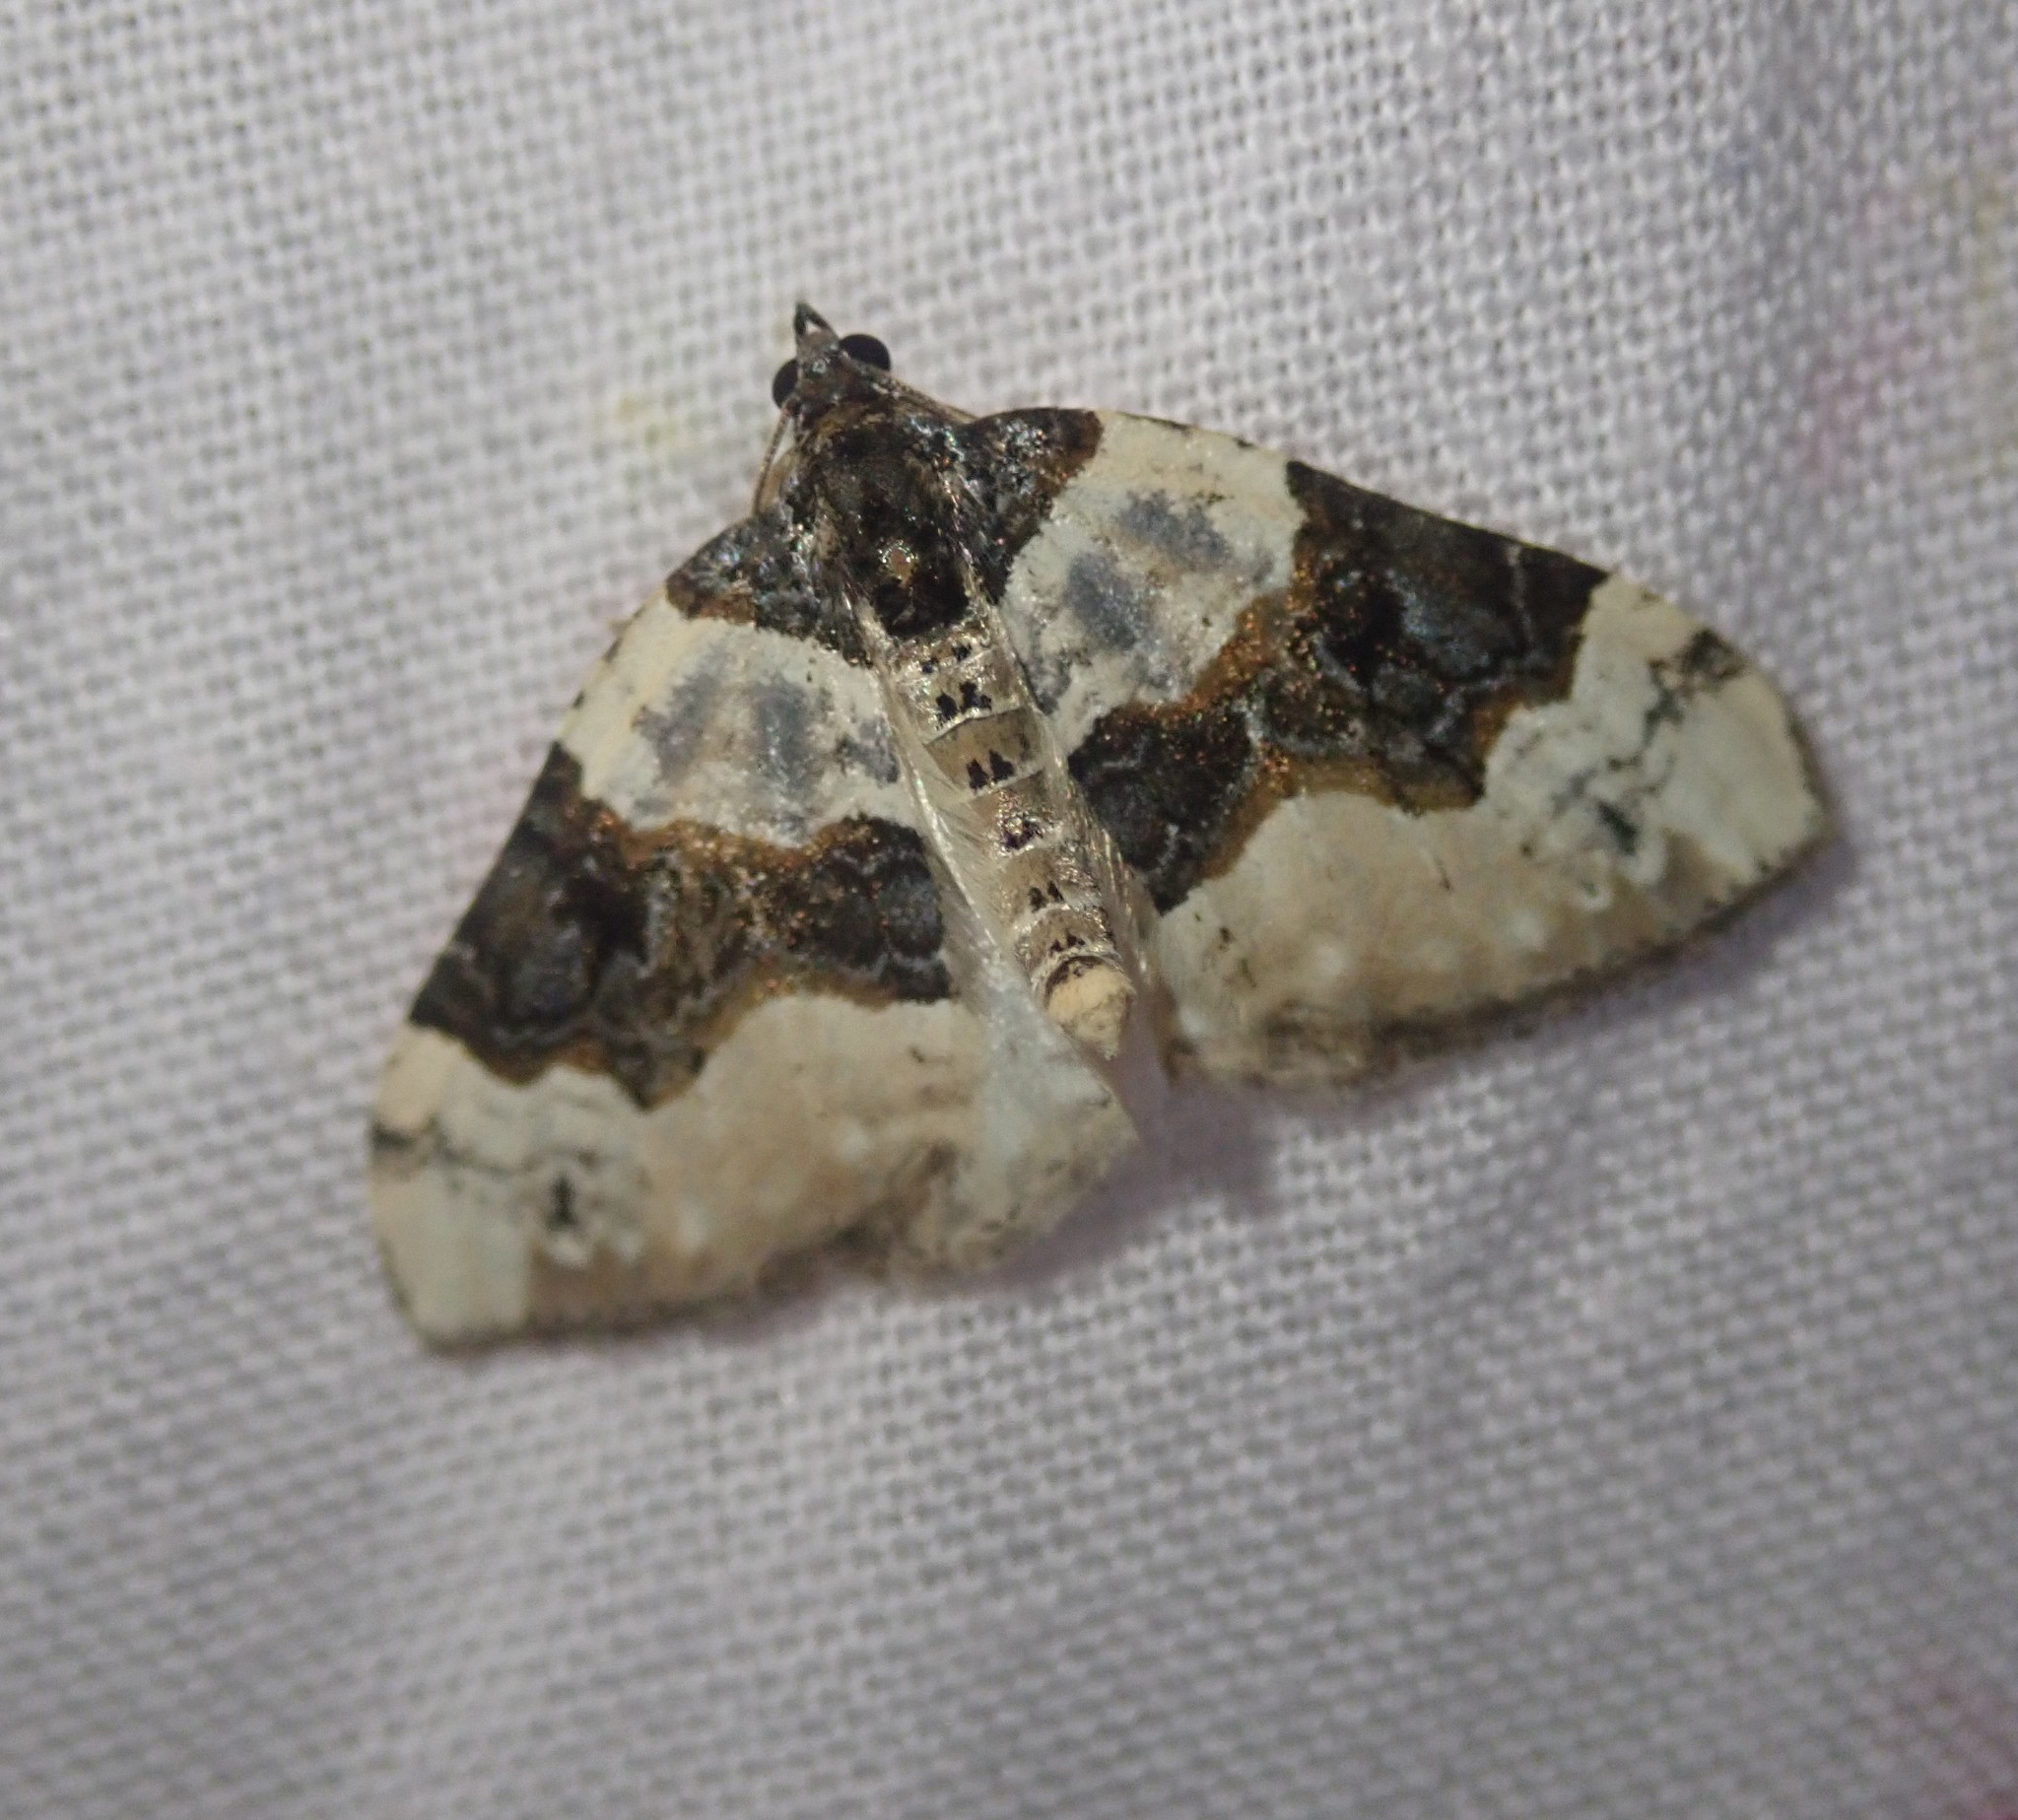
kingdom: Animalia
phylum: Arthropoda
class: Insecta
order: Lepidoptera
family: Geometridae
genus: Cosmorhoe
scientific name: Cosmorhoe ocellata
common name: Purple bar
